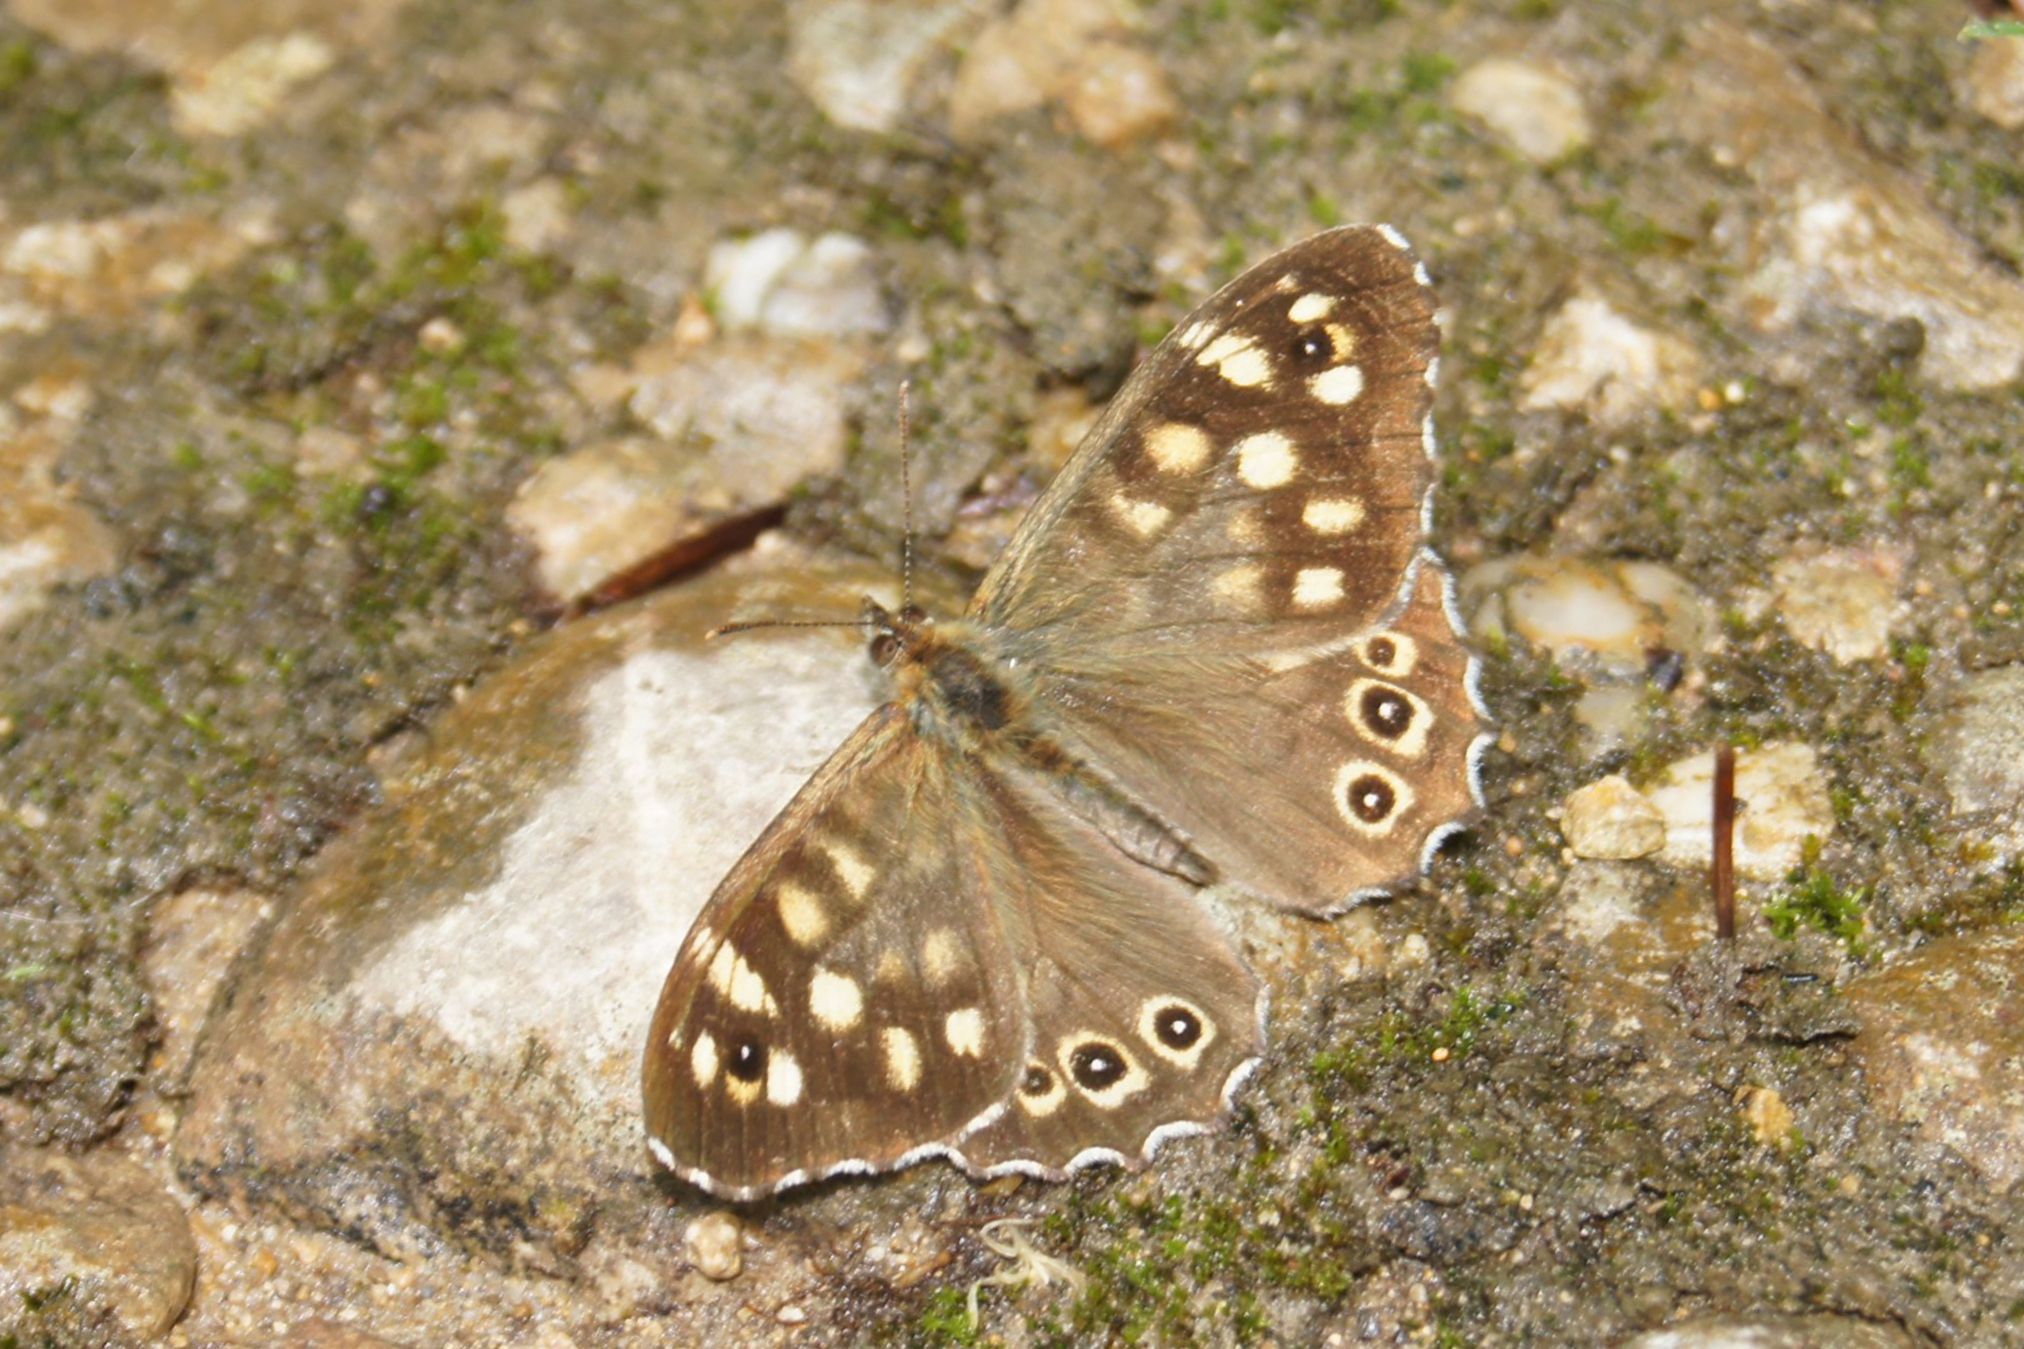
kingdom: Animalia
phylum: Arthropoda
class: Insecta
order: Lepidoptera
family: Nymphalidae
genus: Pararge
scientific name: Pararge aegeria
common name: Speckled wood
